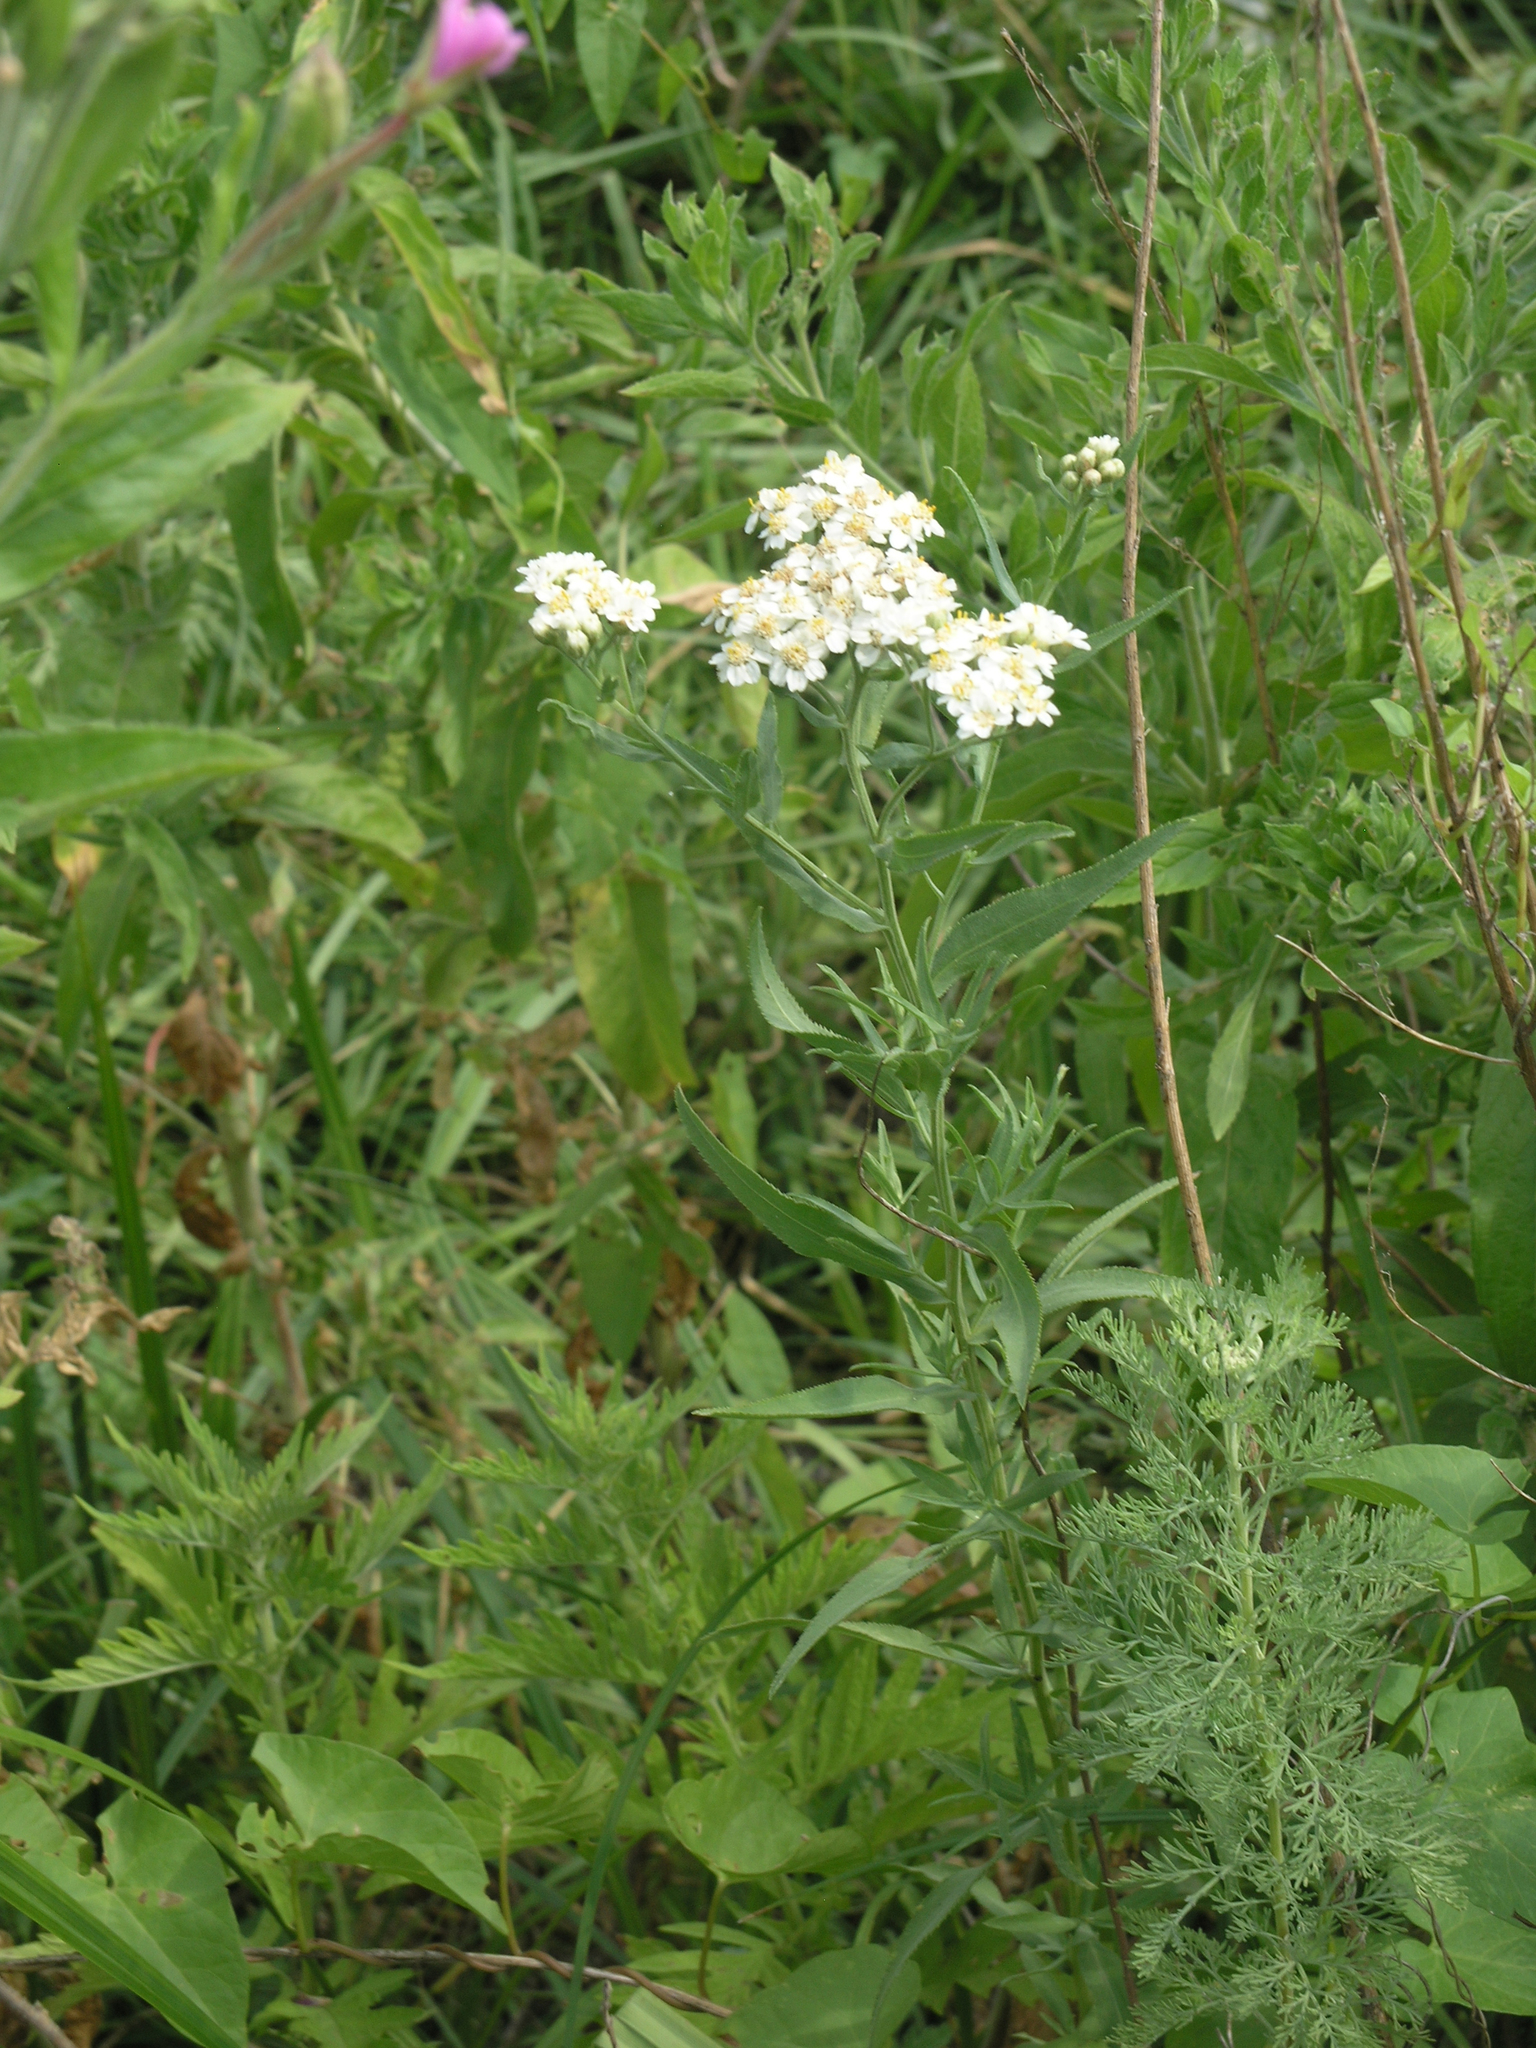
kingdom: Plantae
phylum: Tracheophyta
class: Magnoliopsida
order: Asterales
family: Asteraceae
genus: Achillea
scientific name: Achillea salicifolia
